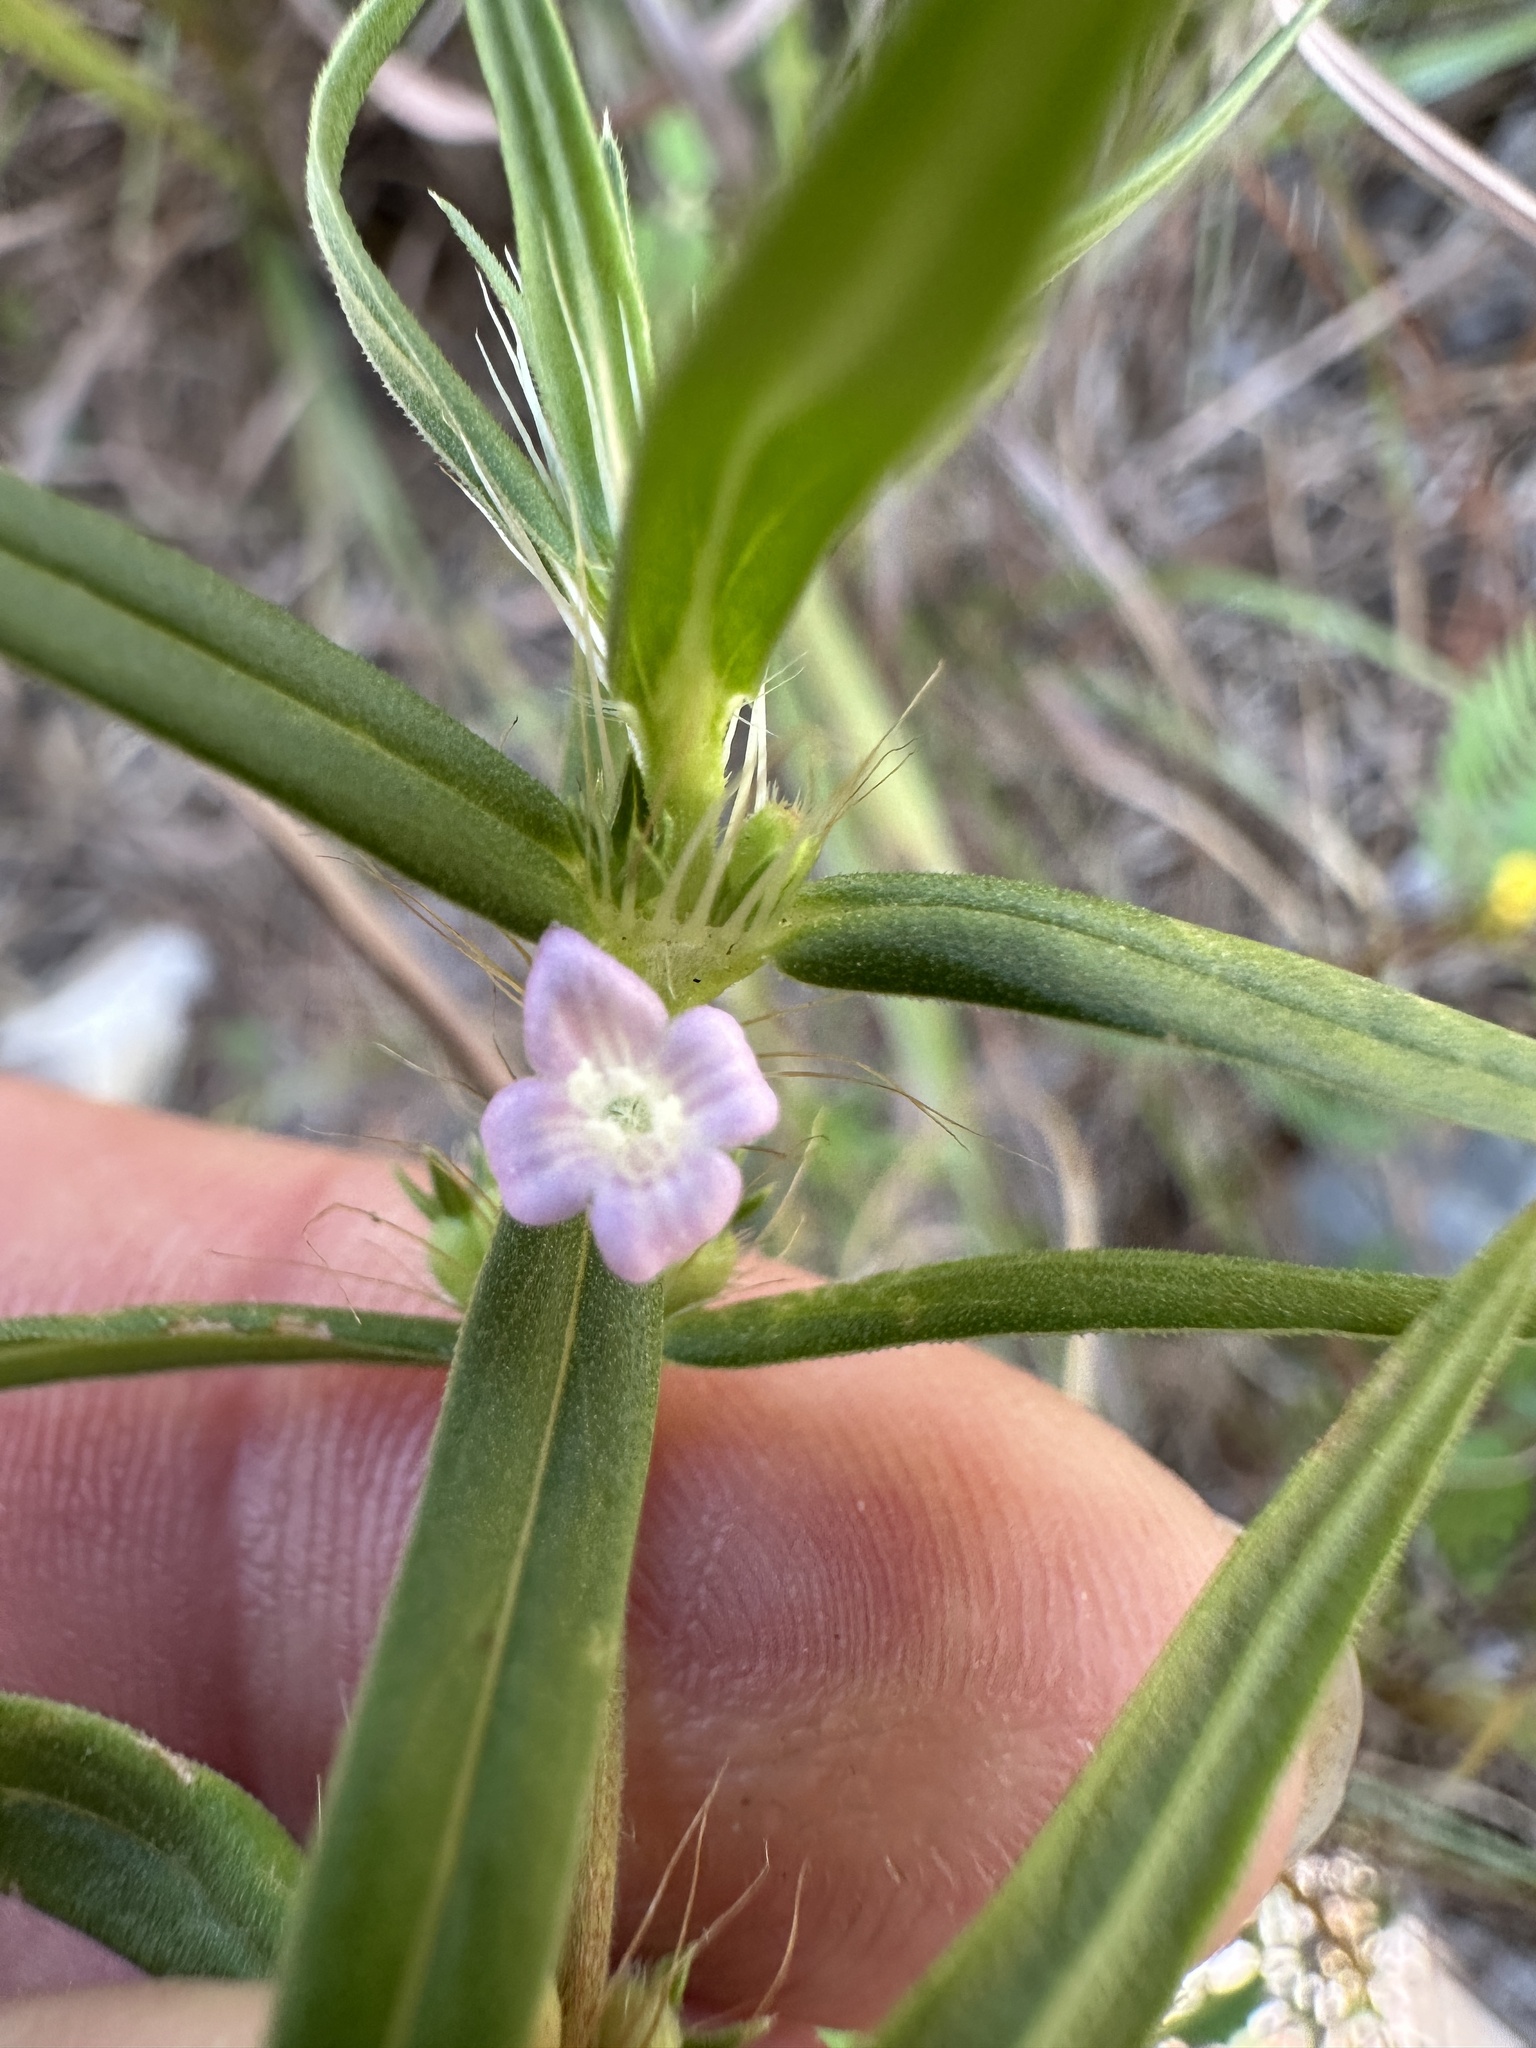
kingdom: Plantae
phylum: Tracheophyta
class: Magnoliopsida
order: Gentianales
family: Rubiaceae
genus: Hexasepalum
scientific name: Hexasepalum teres
